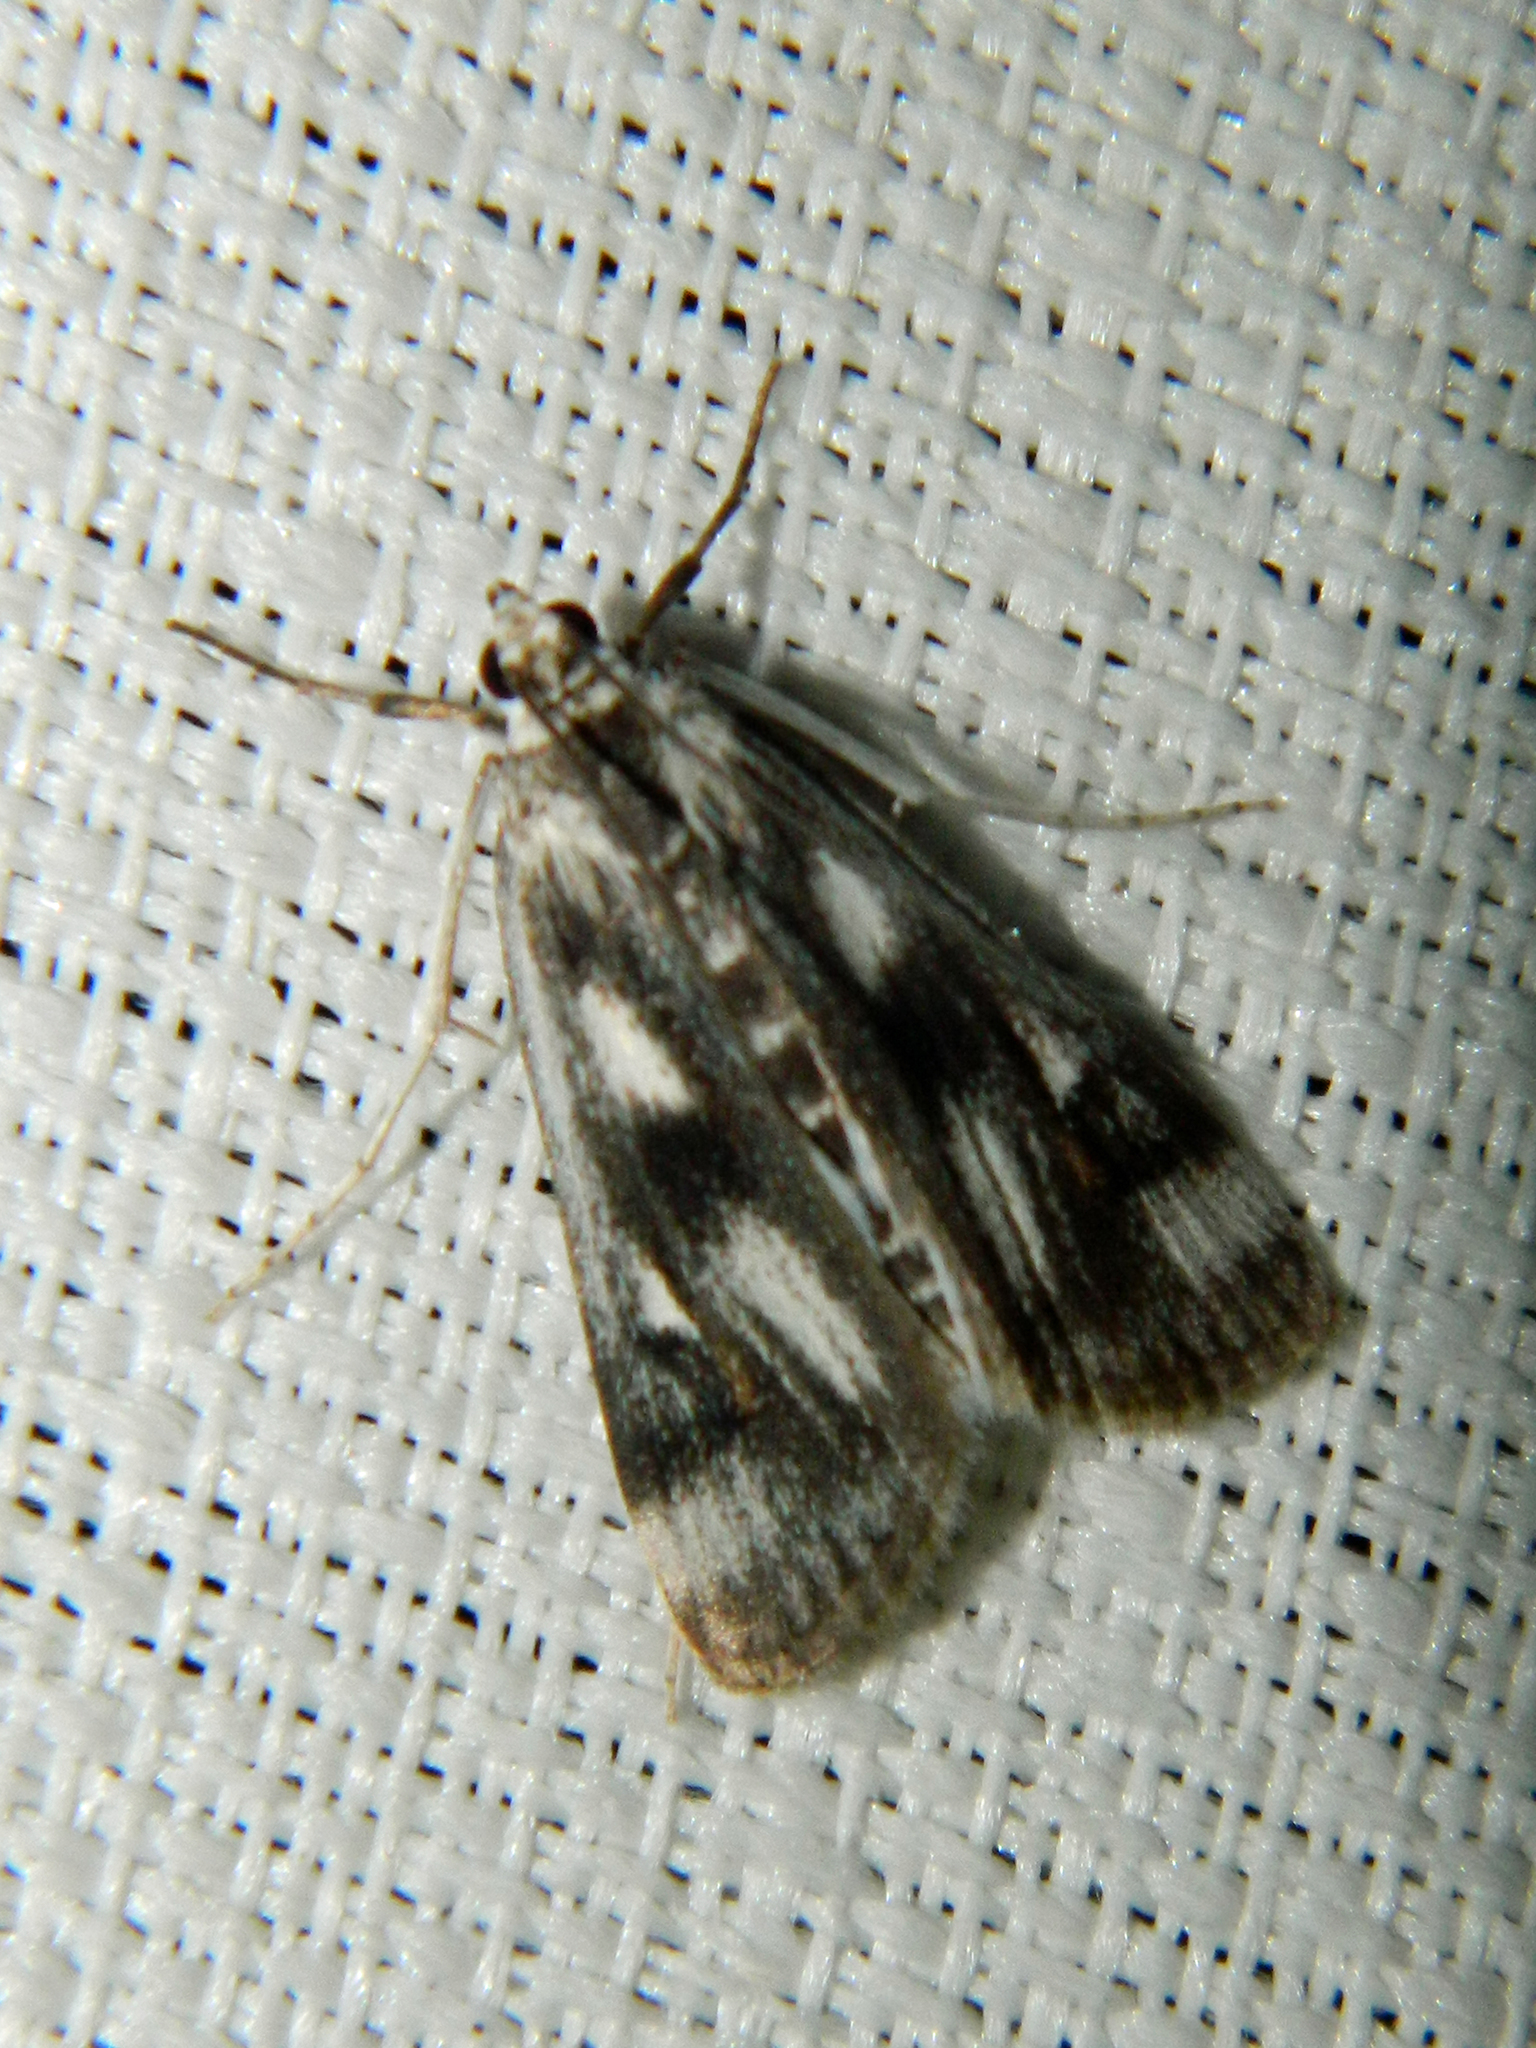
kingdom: Animalia
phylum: Arthropoda
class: Insecta
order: Lepidoptera
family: Crambidae
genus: Parapoynx
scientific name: Parapoynx maculalis
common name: Polymorphic pondweed moth
